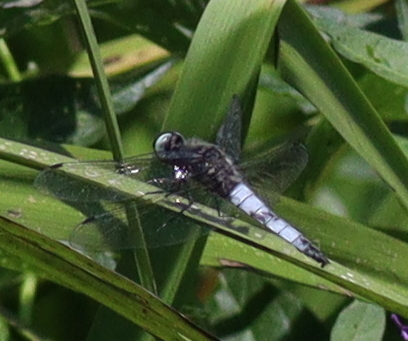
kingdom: Animalia
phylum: Arthropoda
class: Insecta
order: Odonata
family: Libellulidae
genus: Libellula
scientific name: Libellula fulva
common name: Blue chaser
